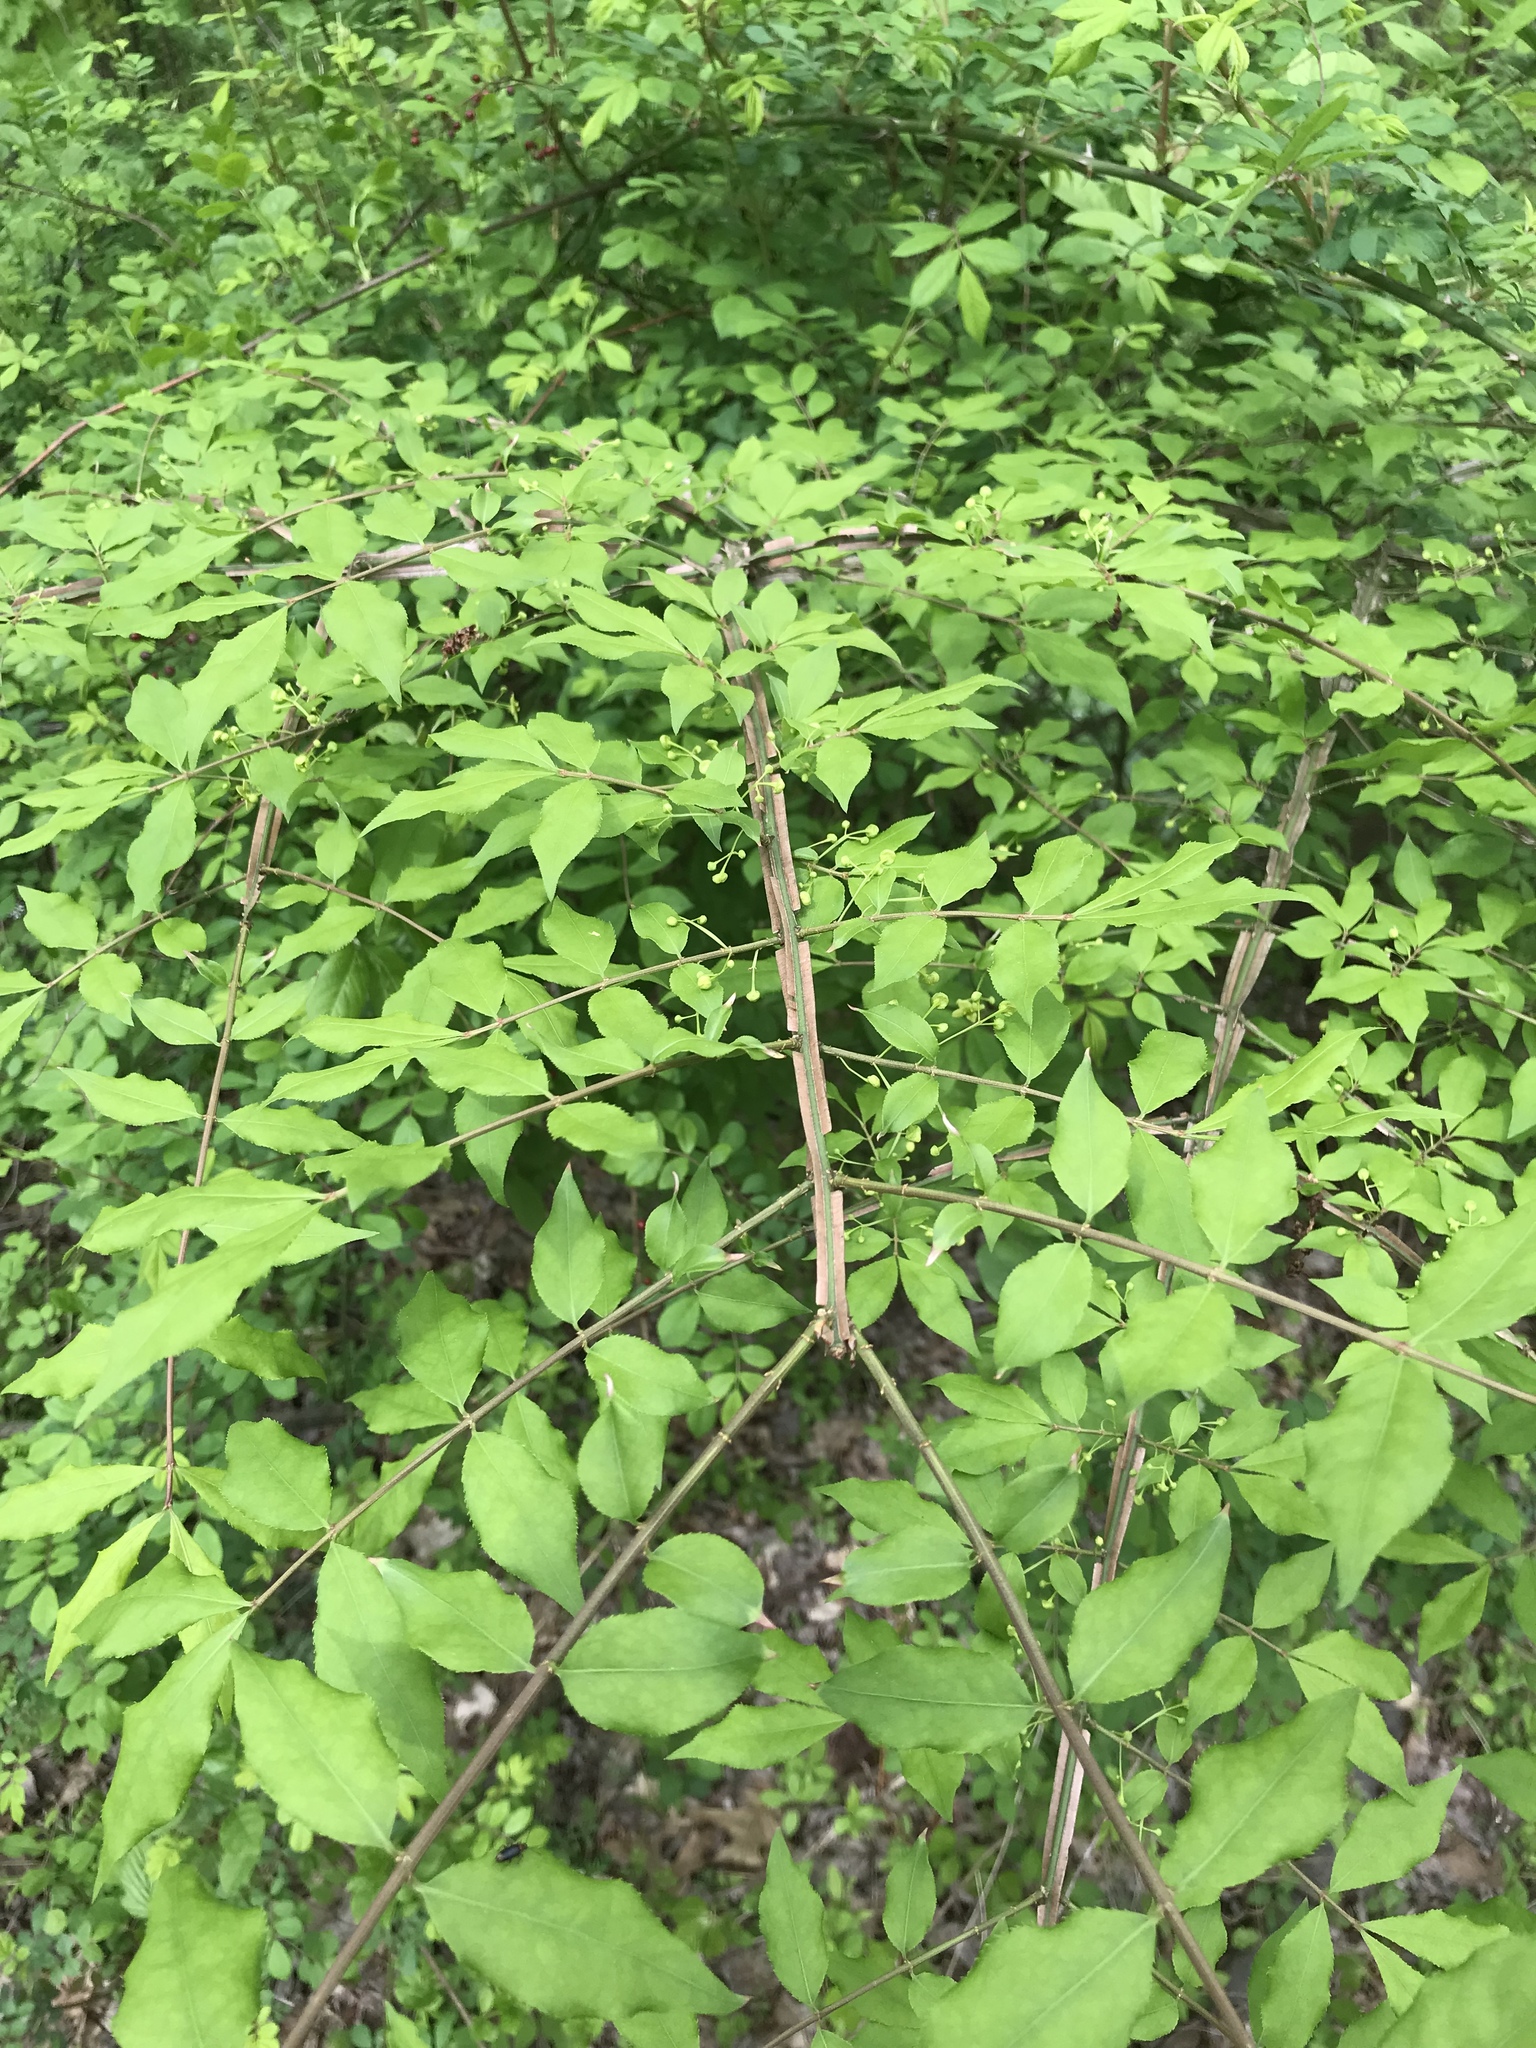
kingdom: Plantae
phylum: Tracheophyta
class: Magnoliopsida
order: Celastrales
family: Celastraceae
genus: Euonymus
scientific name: Euonymus alatus
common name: Winged euonymus
